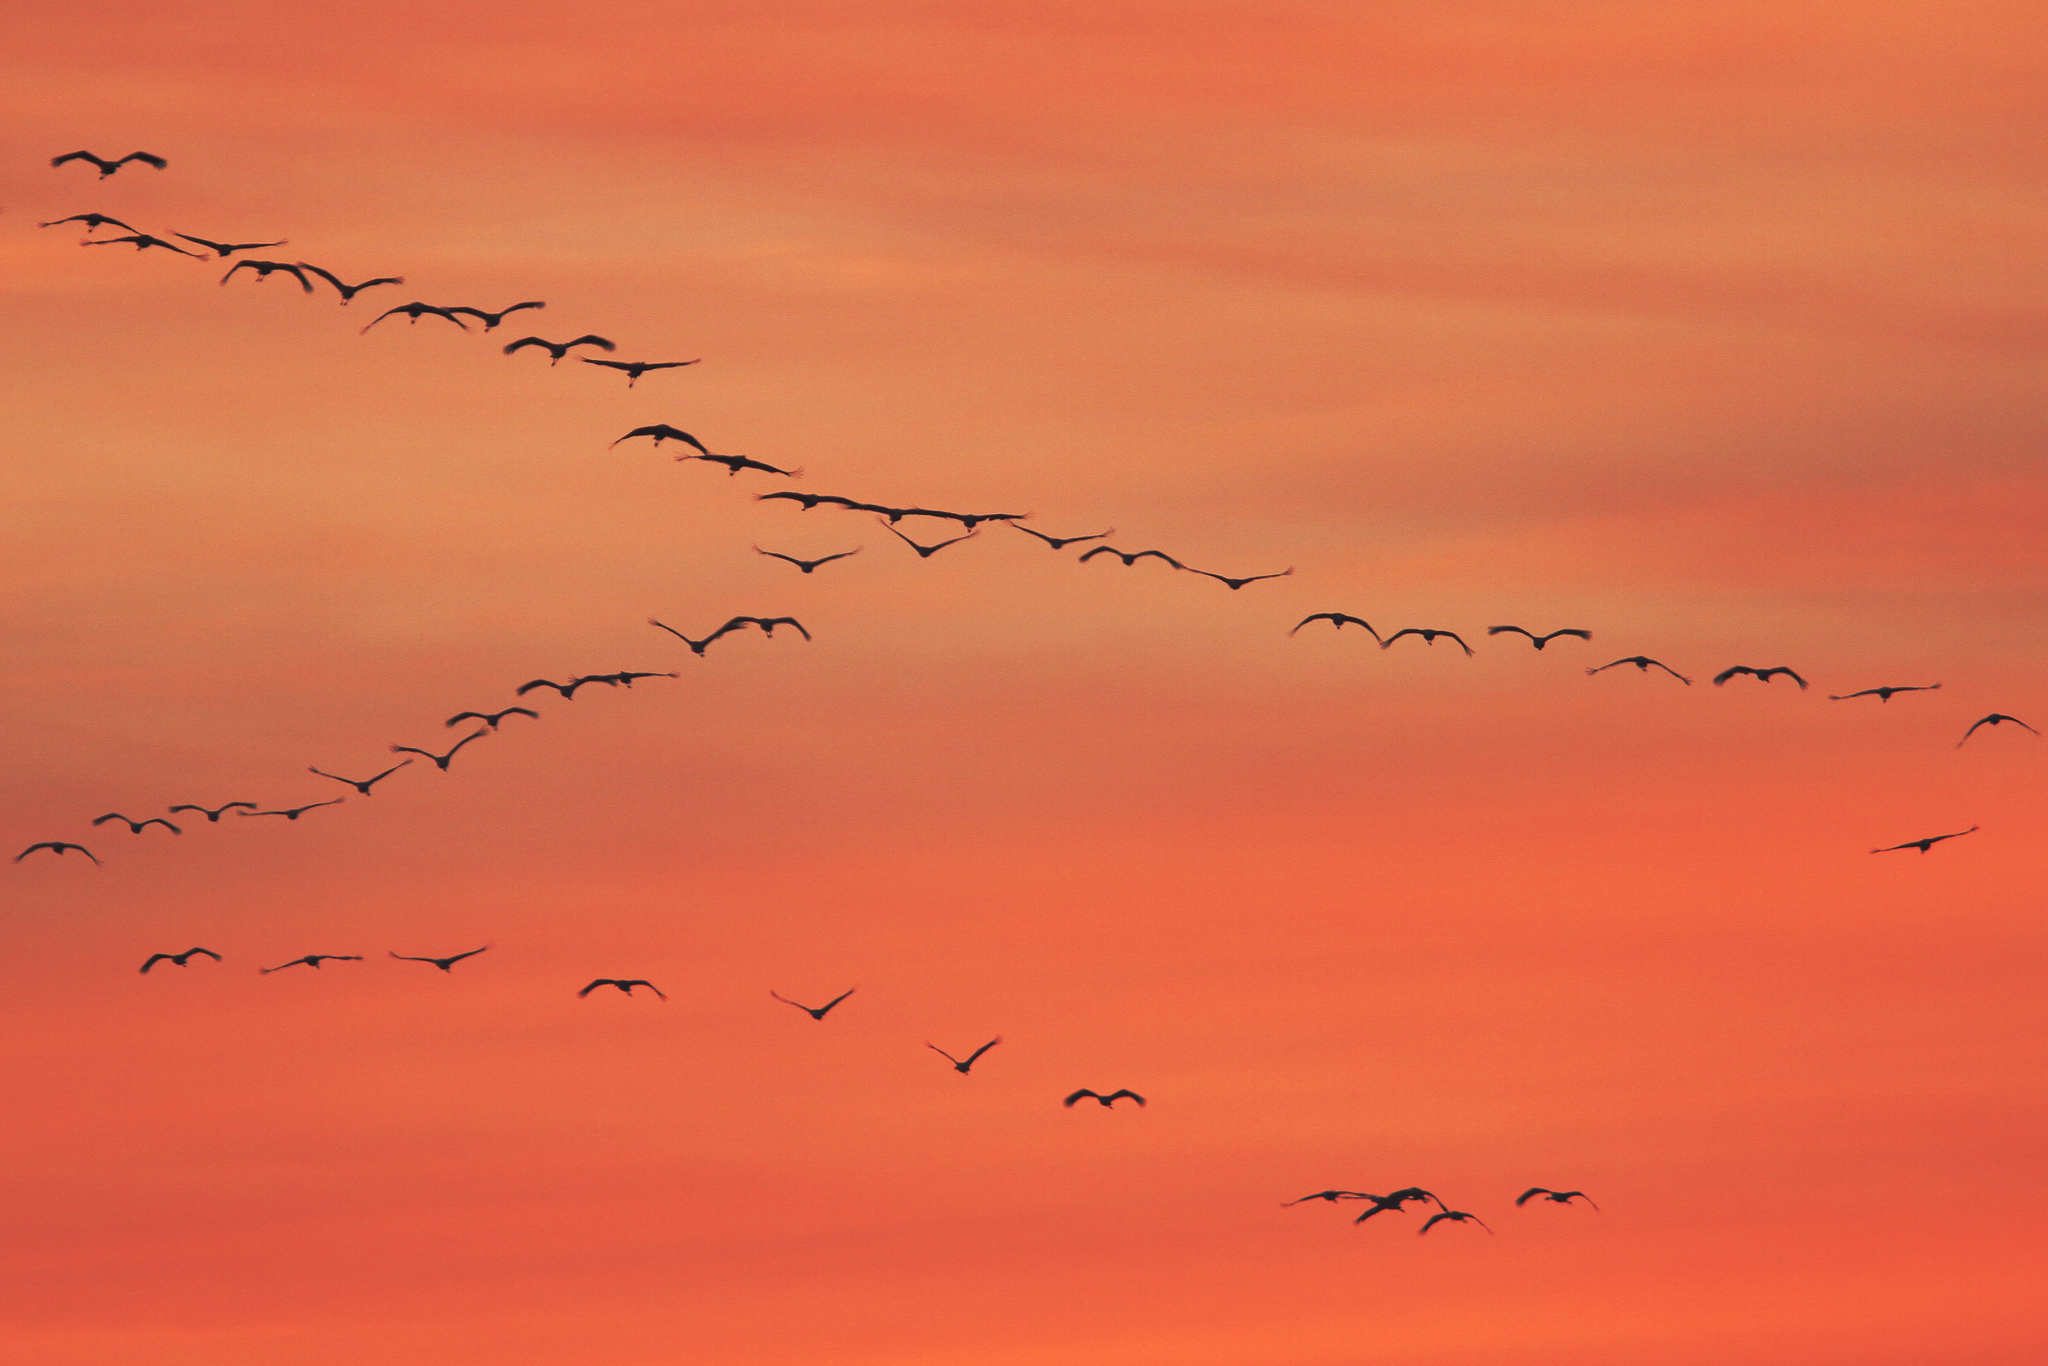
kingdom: Animalia
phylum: Chordata
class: Aves
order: Gruiformes
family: Gruidae
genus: Grus
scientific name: Grus grus
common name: Common crane
